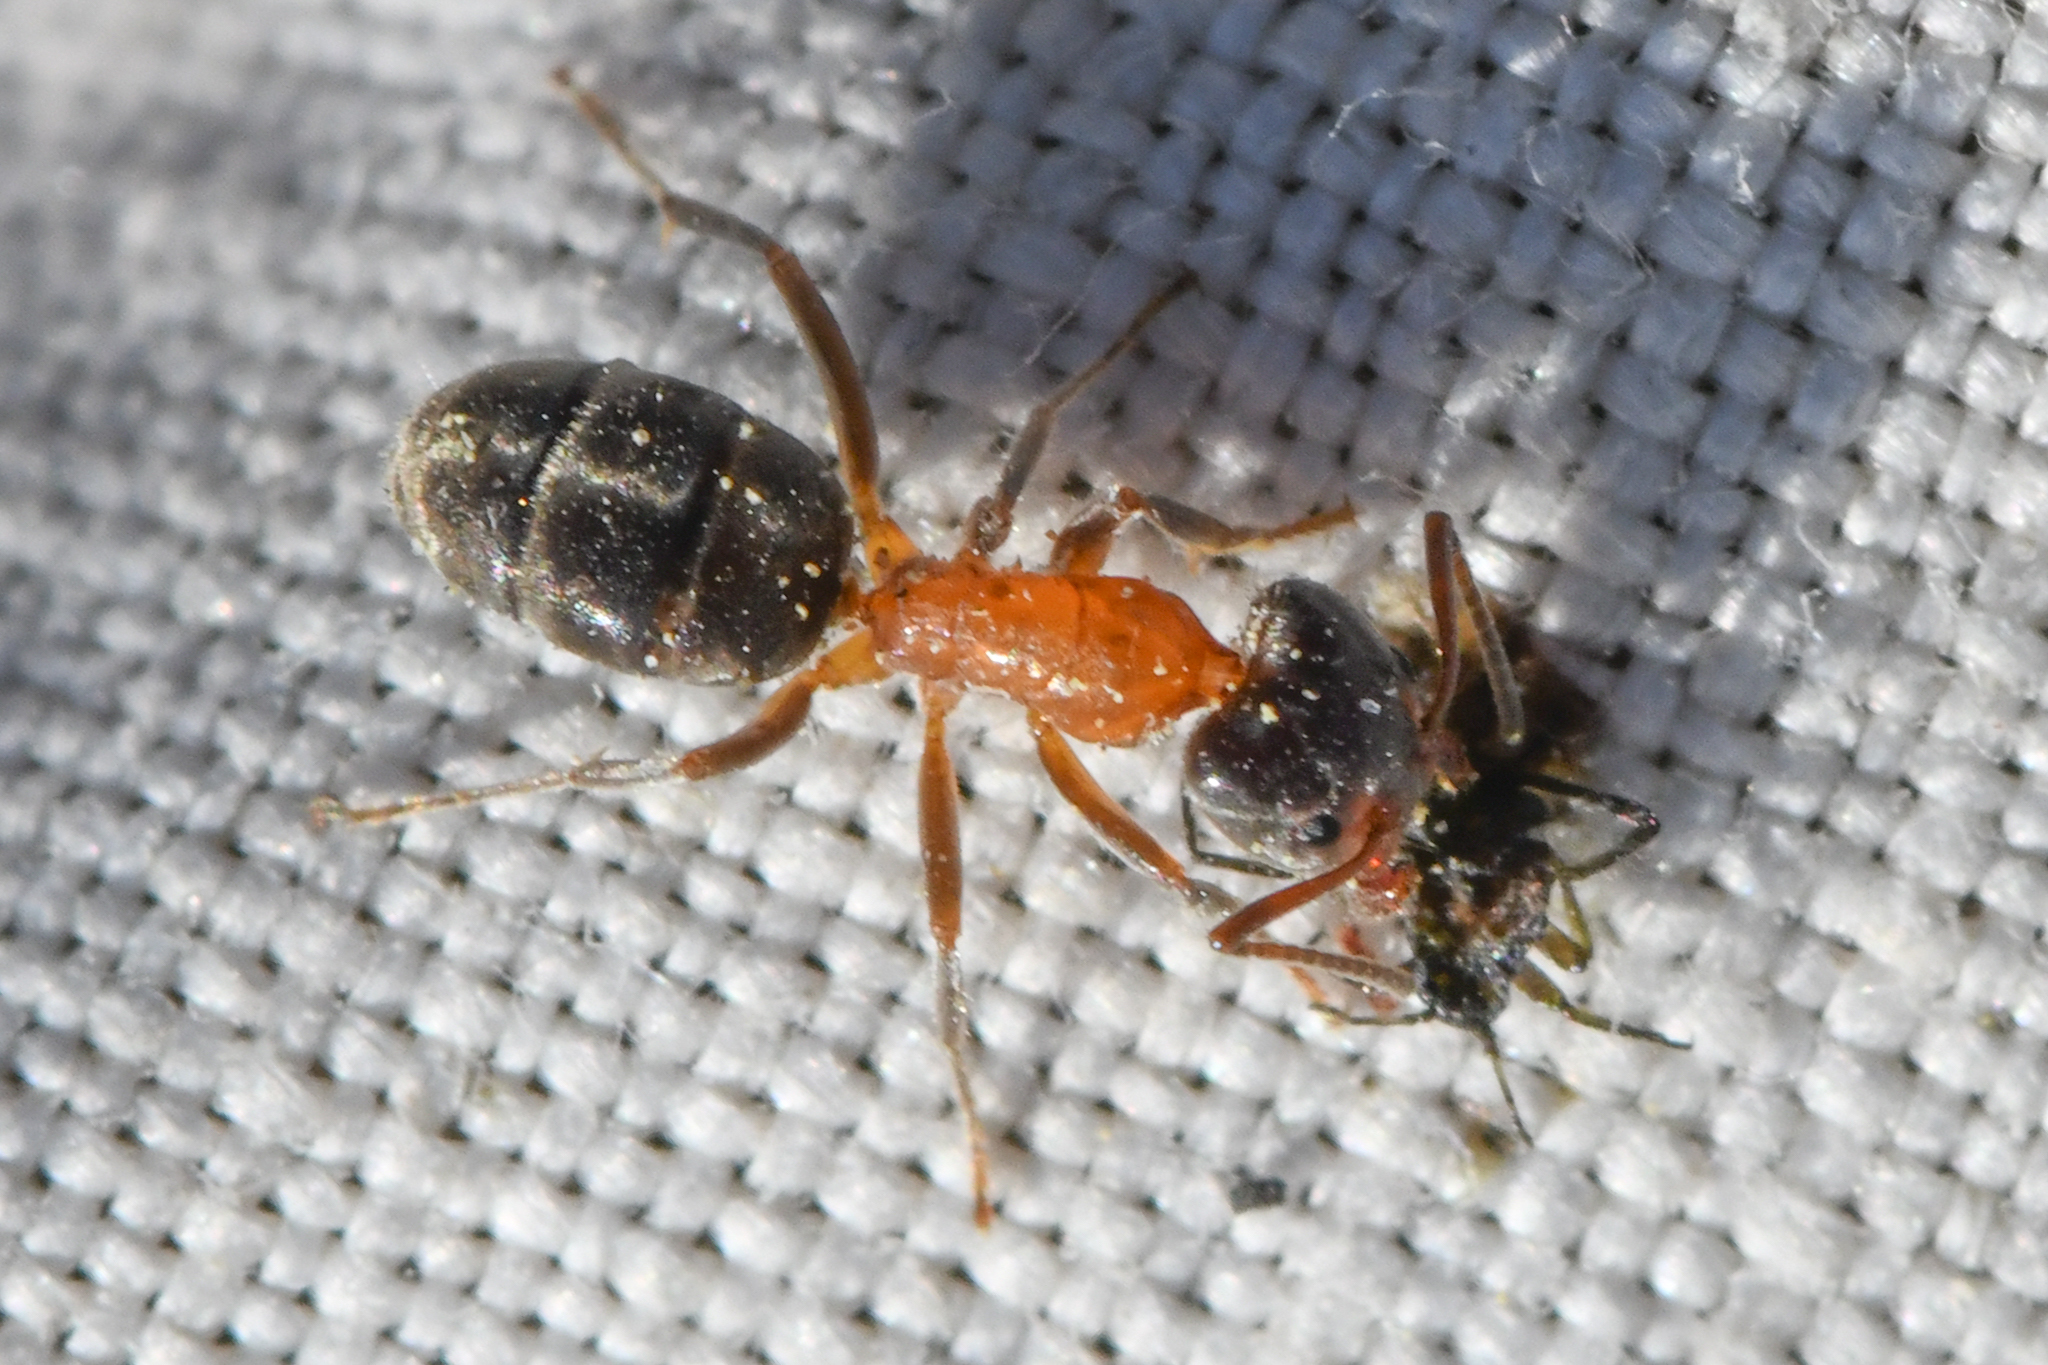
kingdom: Animalia
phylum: Arthropoda
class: Insecta
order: Hymenoptera
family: Formicidae
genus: Liometopum
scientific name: Liometopum occidentale
